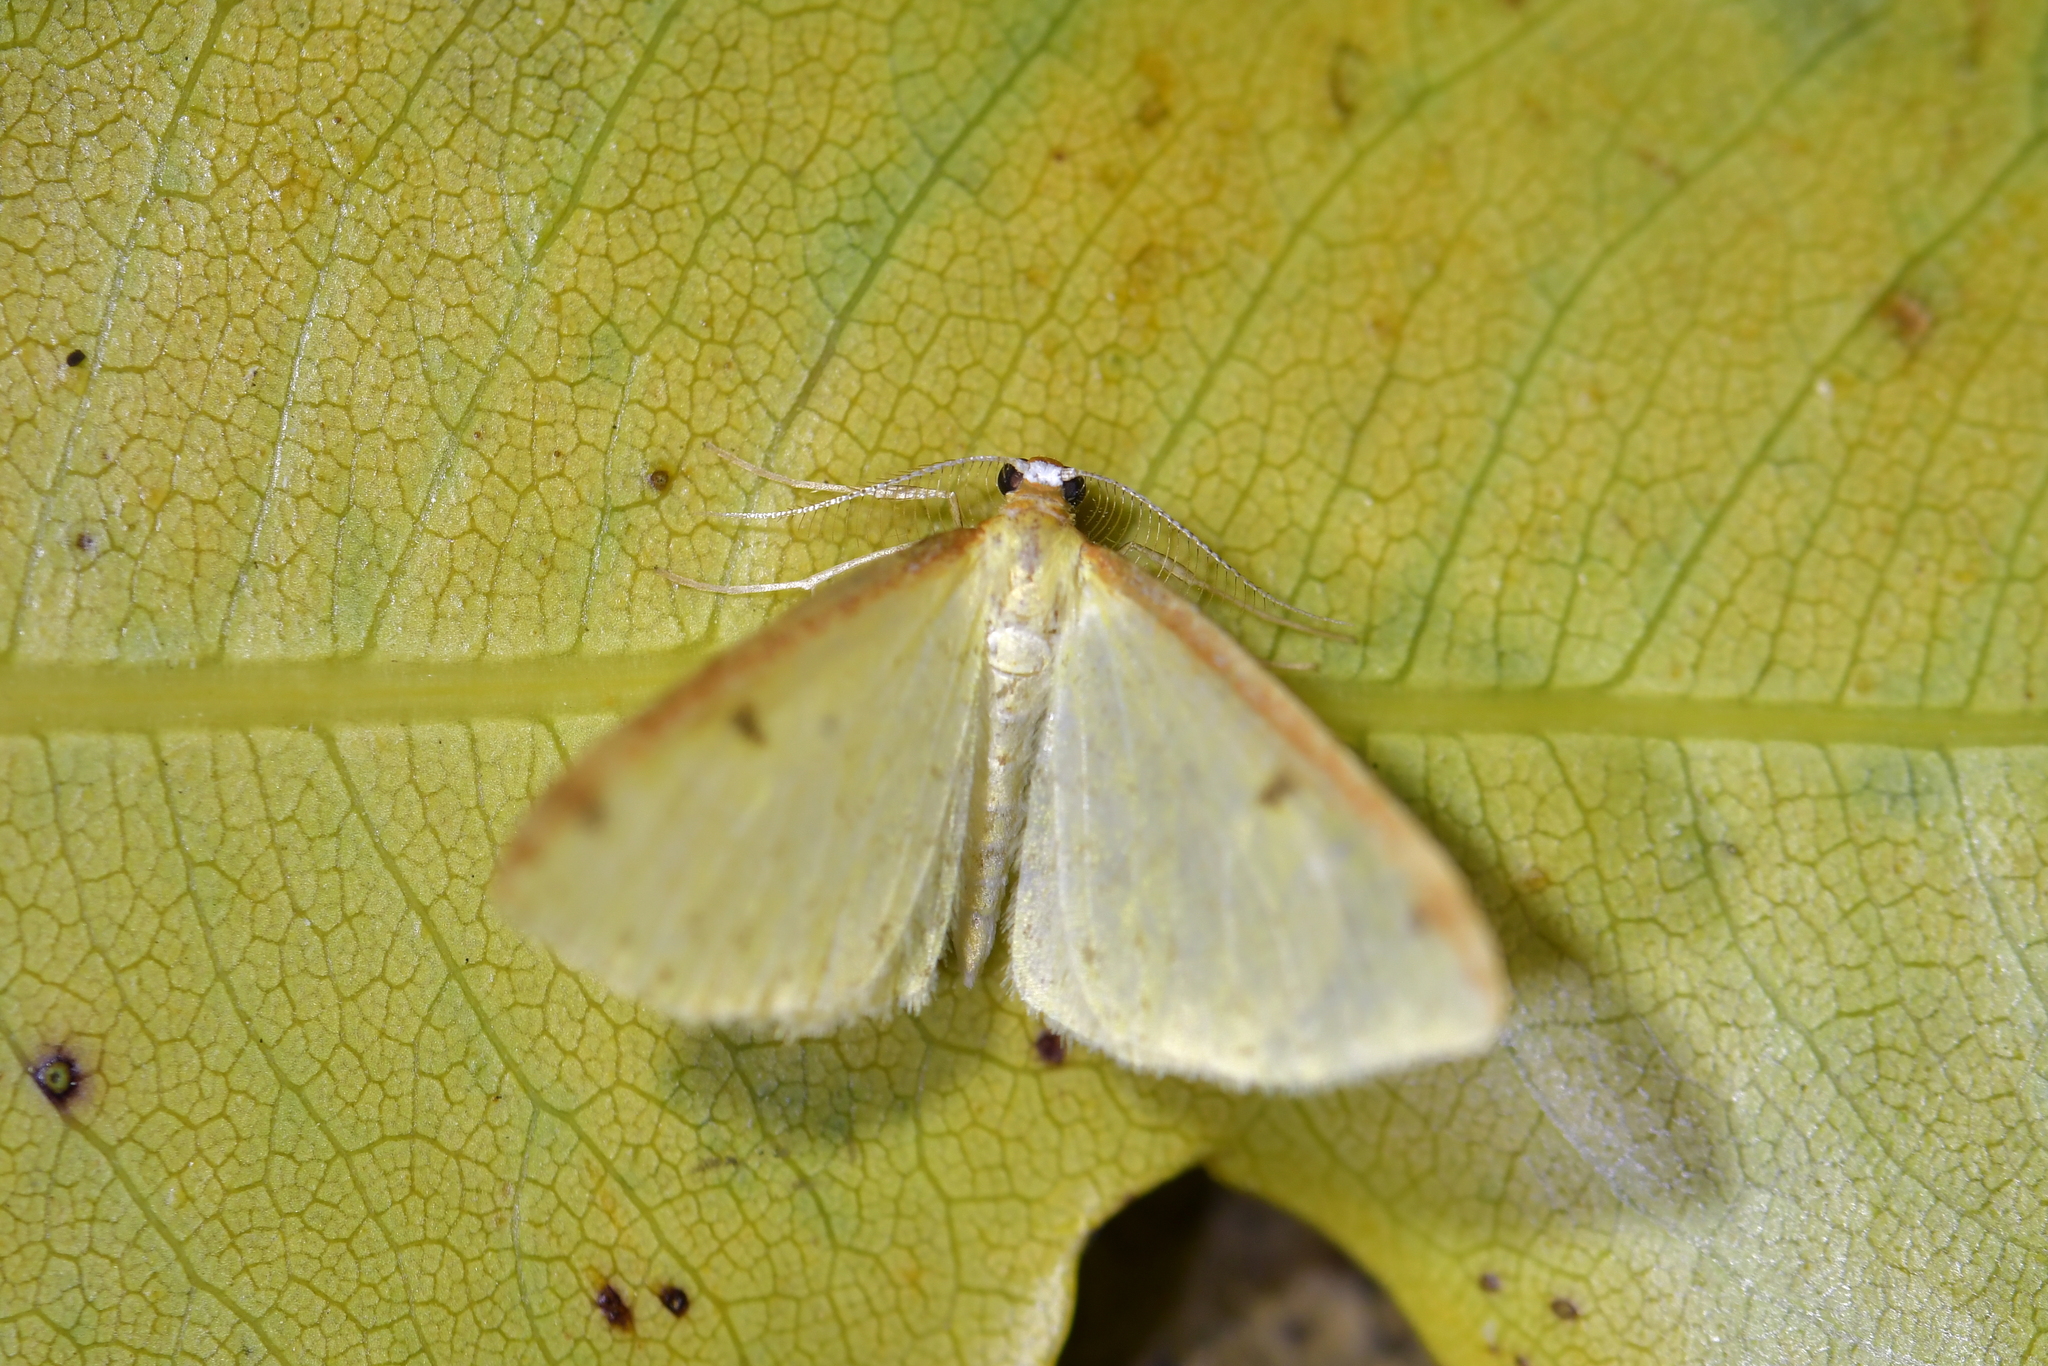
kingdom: Animalia
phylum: Arthropoda
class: Insecta
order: Lepidoptera
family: Geometridae
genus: Epiphryne
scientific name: Epiphryne undosata
